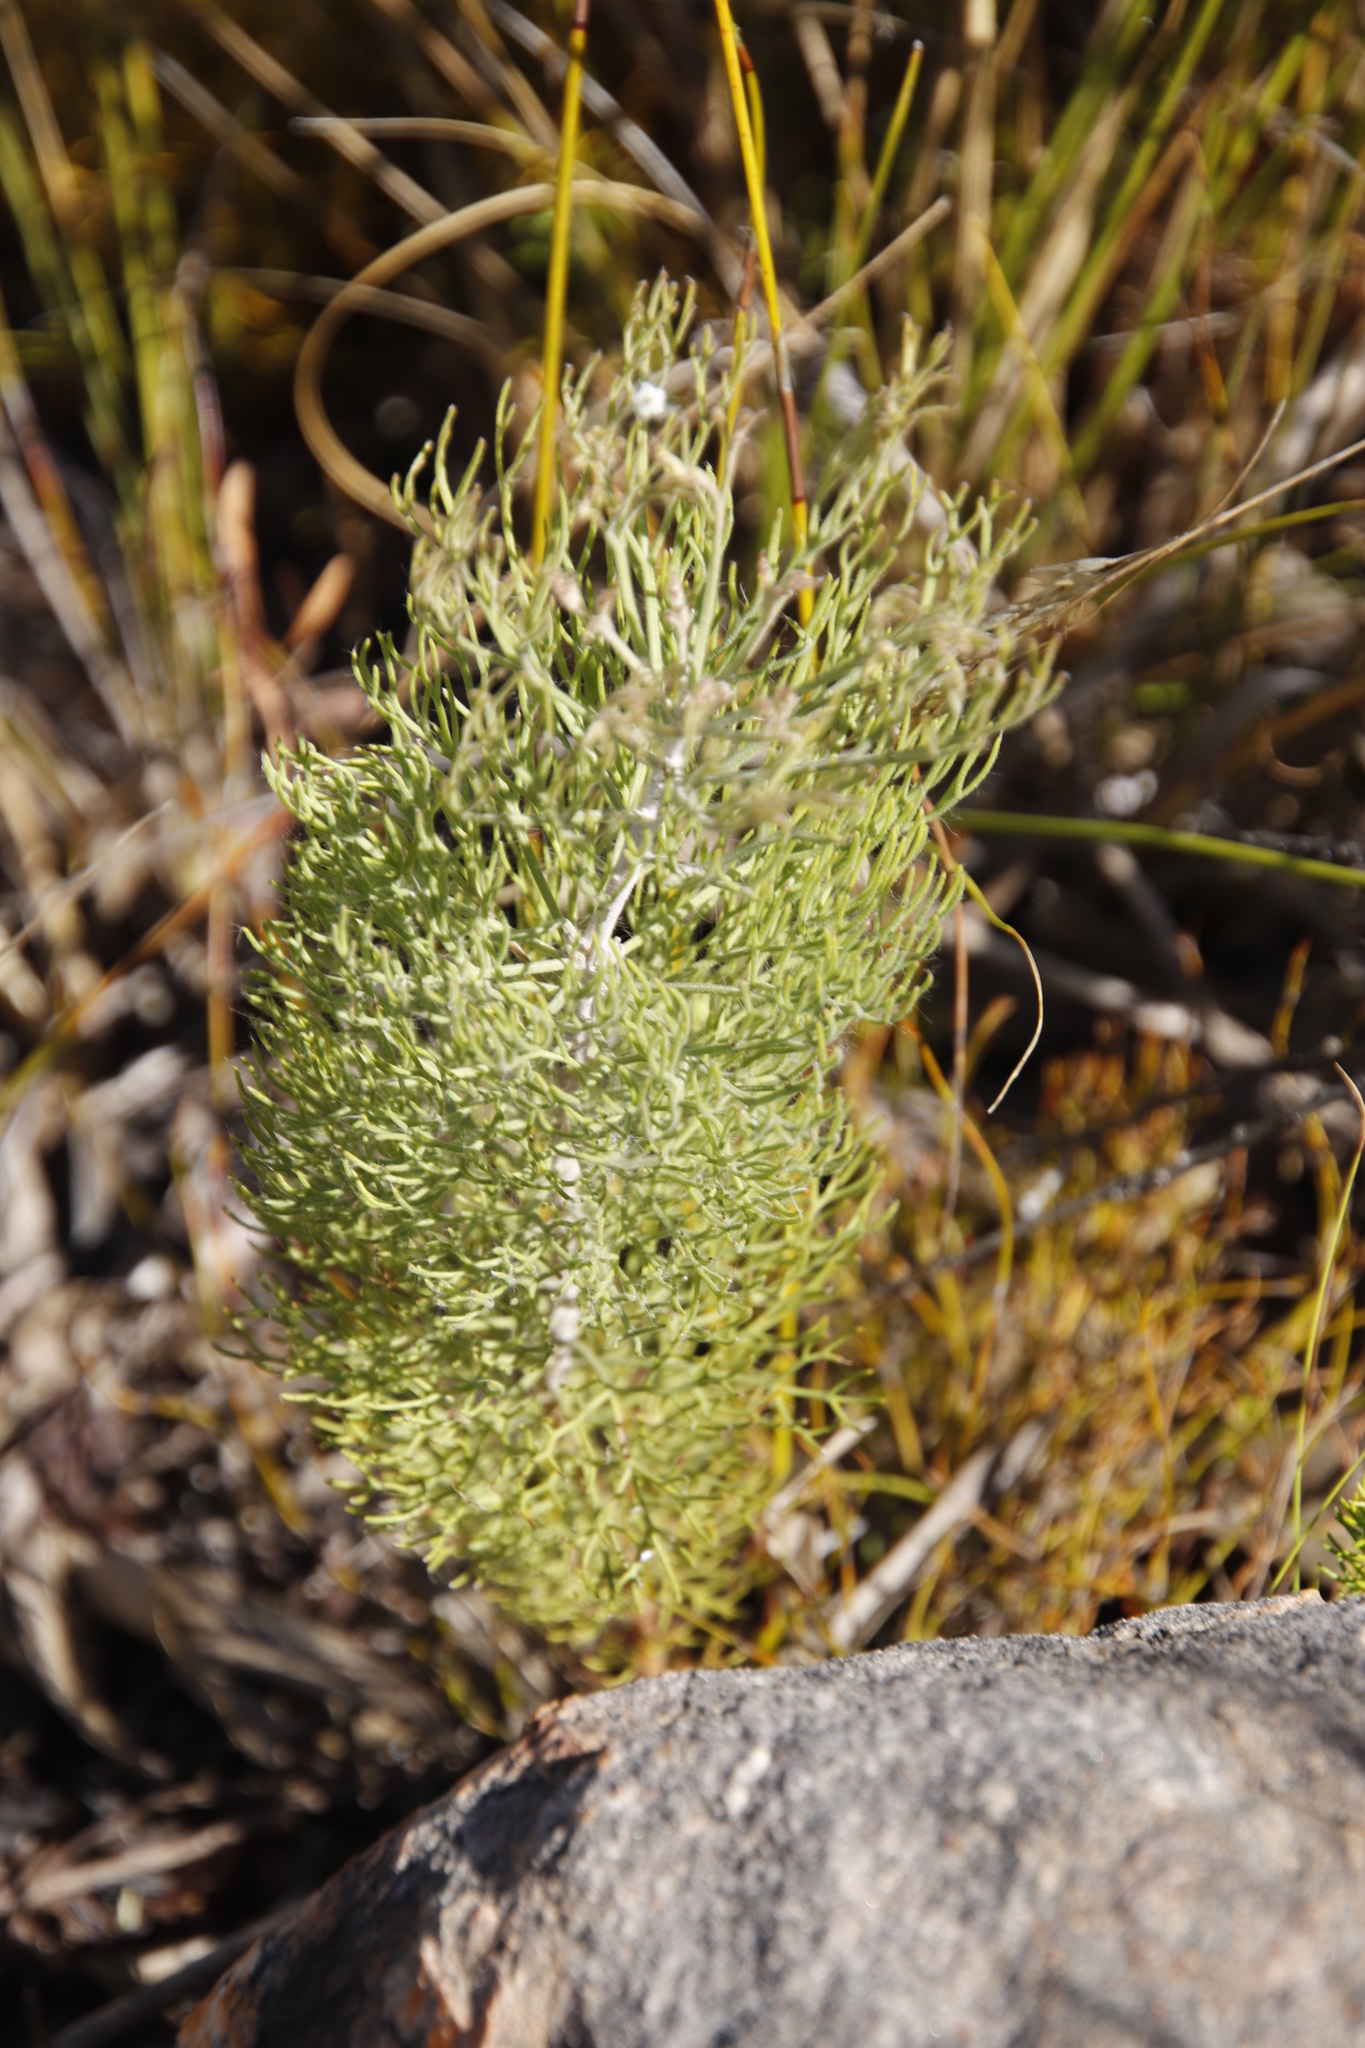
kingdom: Plantae
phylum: Tracheophyta
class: Magnoliopsida
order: Proteales
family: Proteaceae
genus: Paranomus
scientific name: Paranomus dispersus
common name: Long-head sceptre
